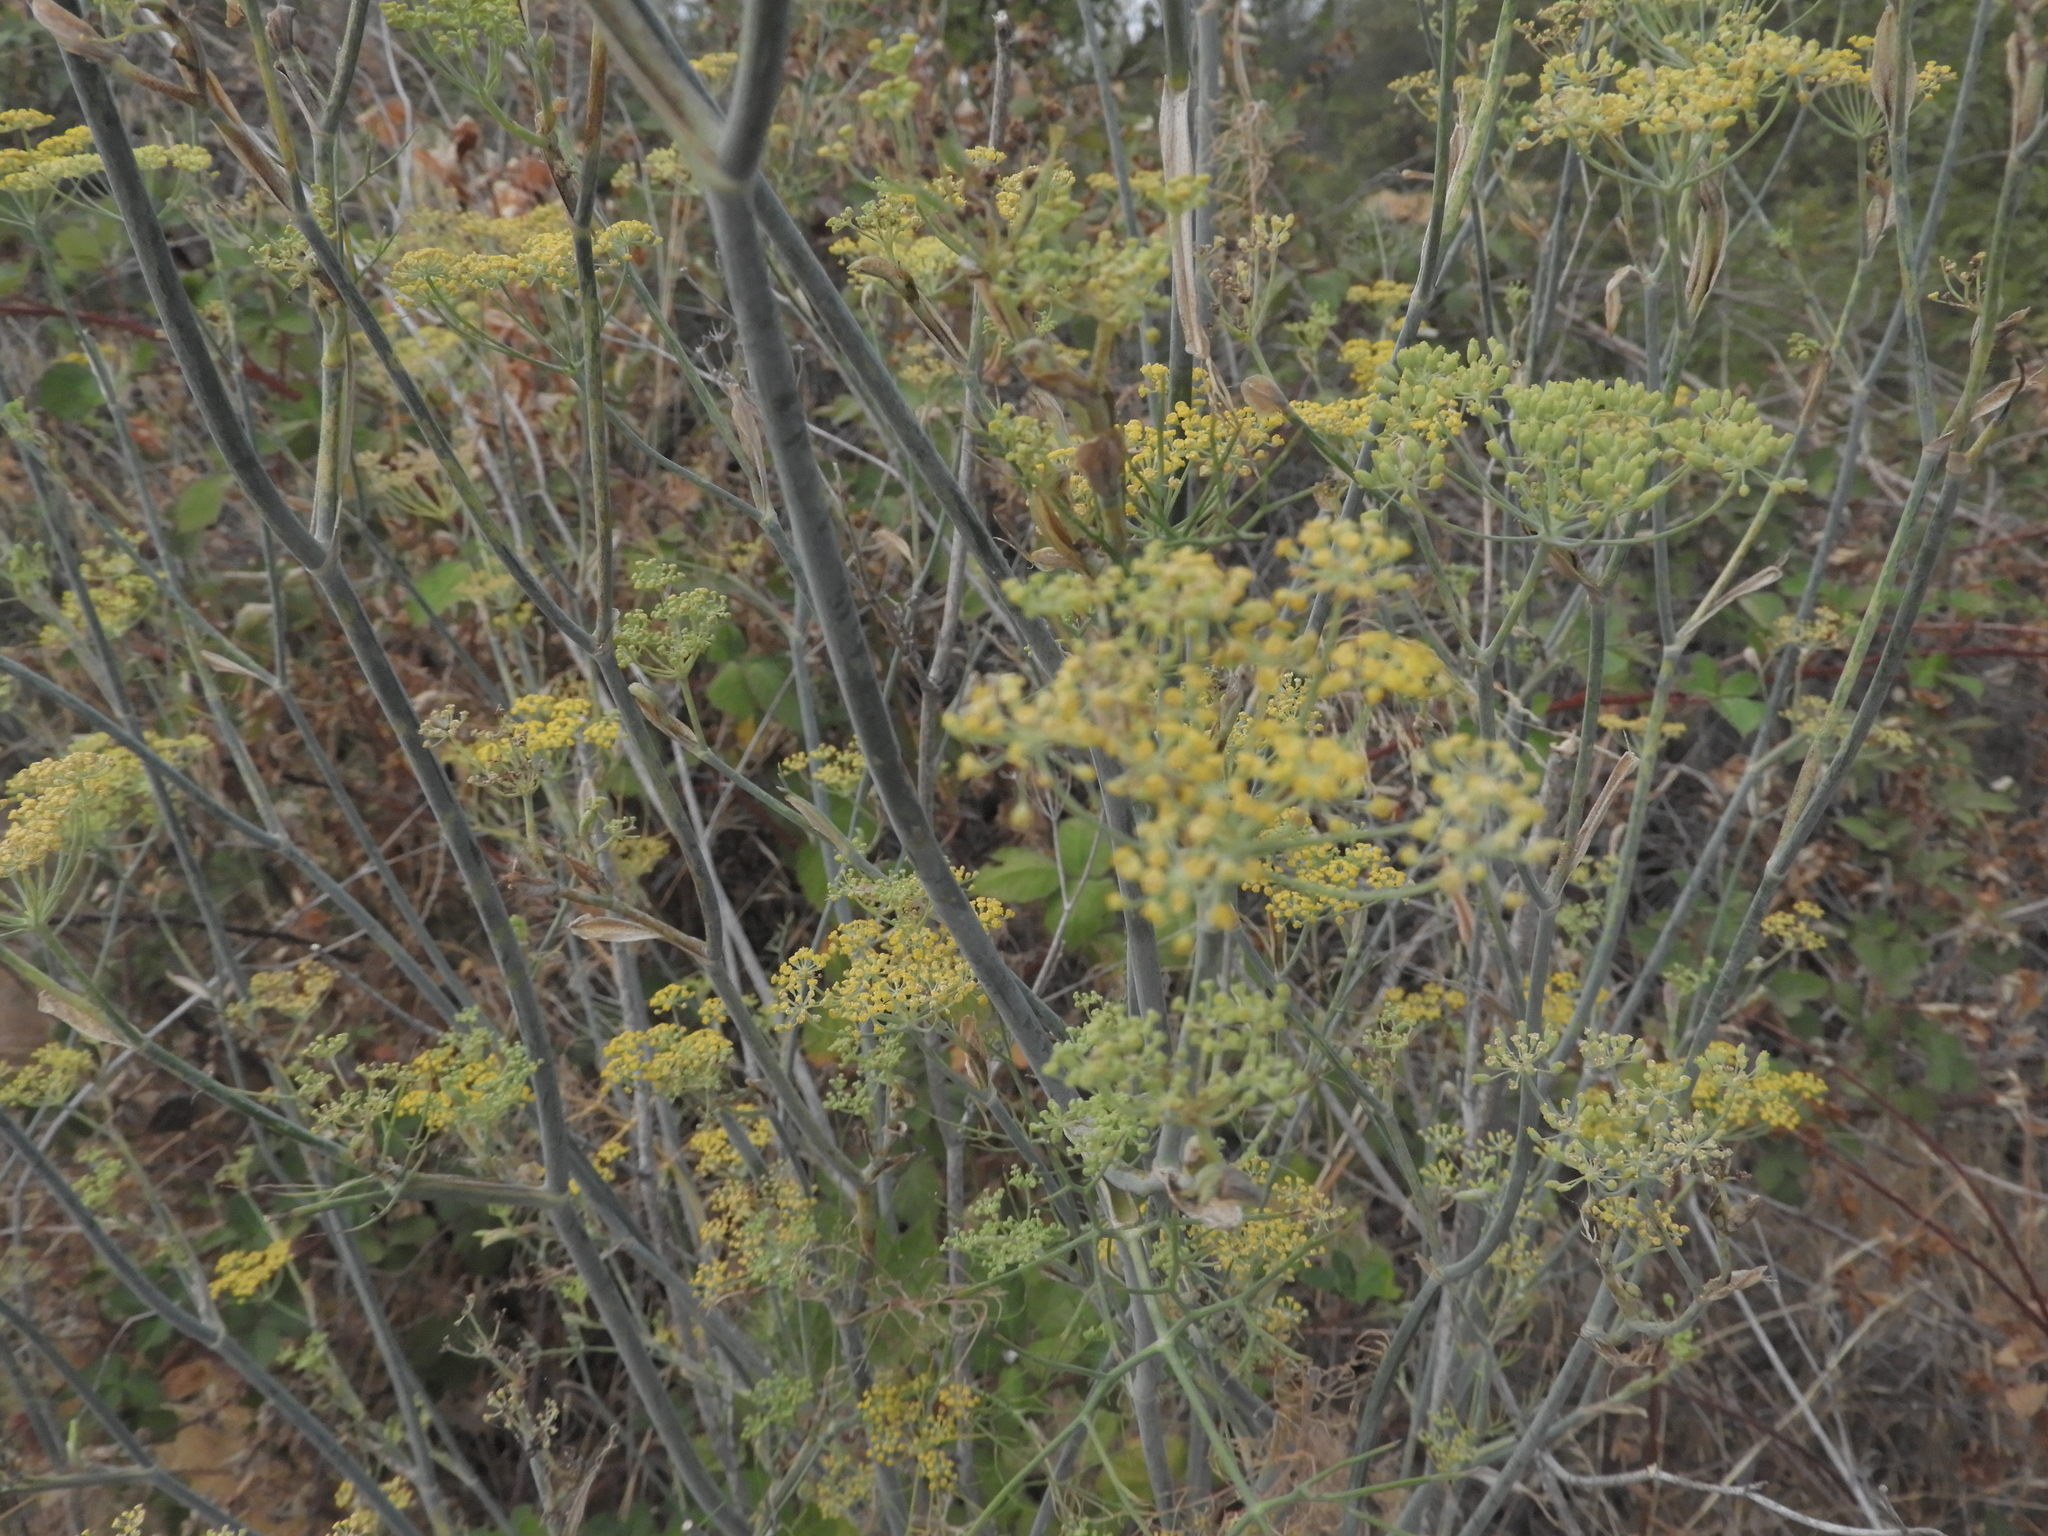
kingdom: Plantae
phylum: Tracheophyta
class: Magnoliopsida
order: Apiales
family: Apiaceae
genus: Foeniculum
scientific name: Foeniculum vulgare
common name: Fennel
